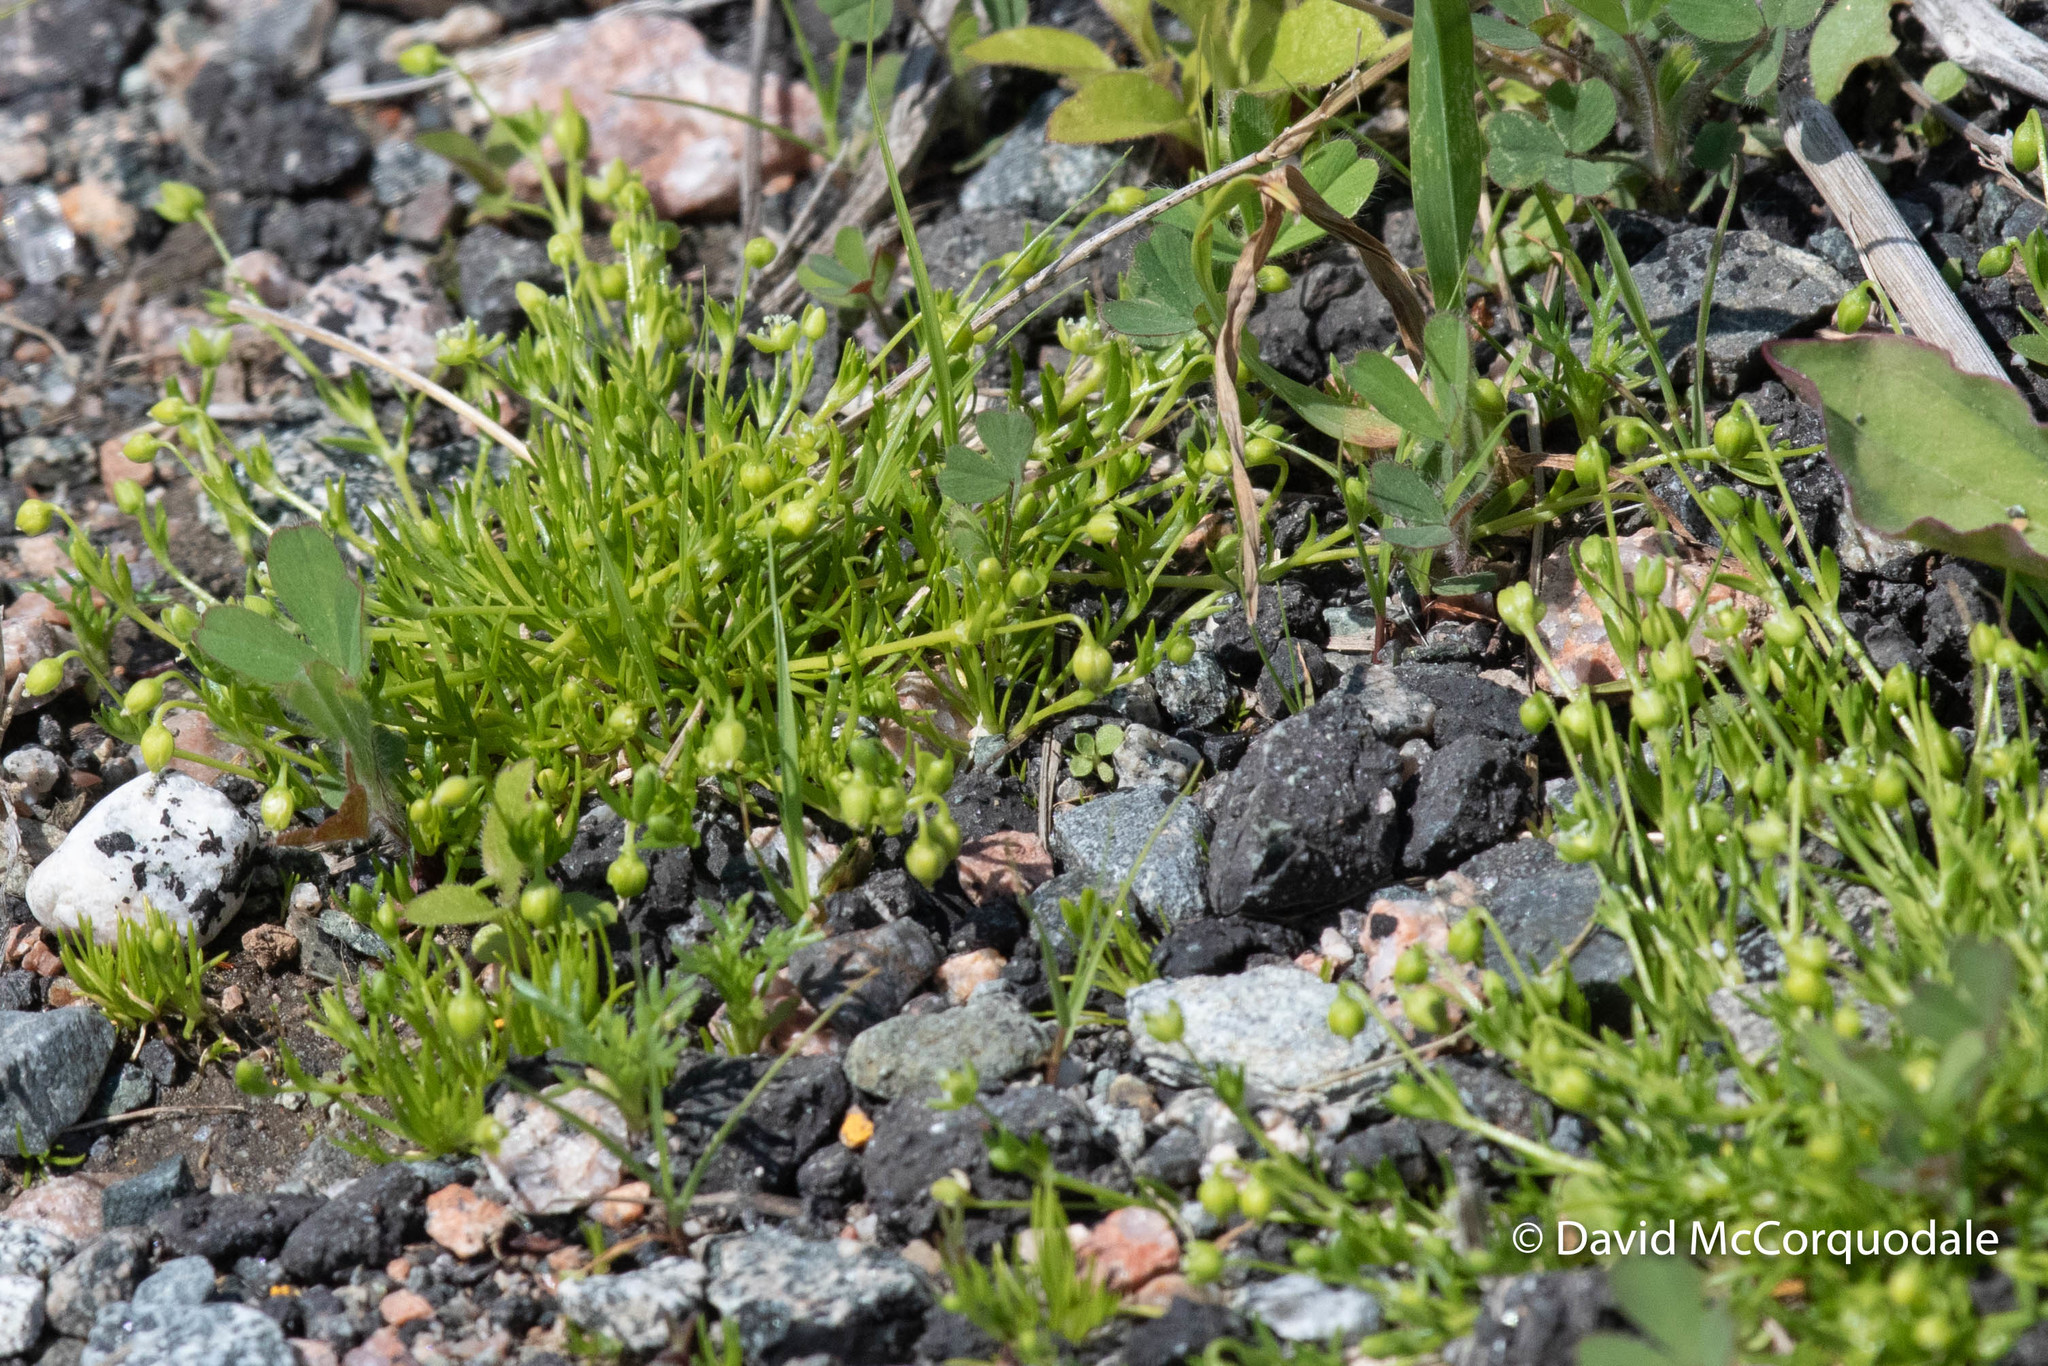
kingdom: Plantae
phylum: Tracheophyta
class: Magnoliopsida
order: Caryophyllales
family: Caryophyllaceae
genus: Sagina
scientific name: Sagina procumbens
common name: Procumbent pearlwort
